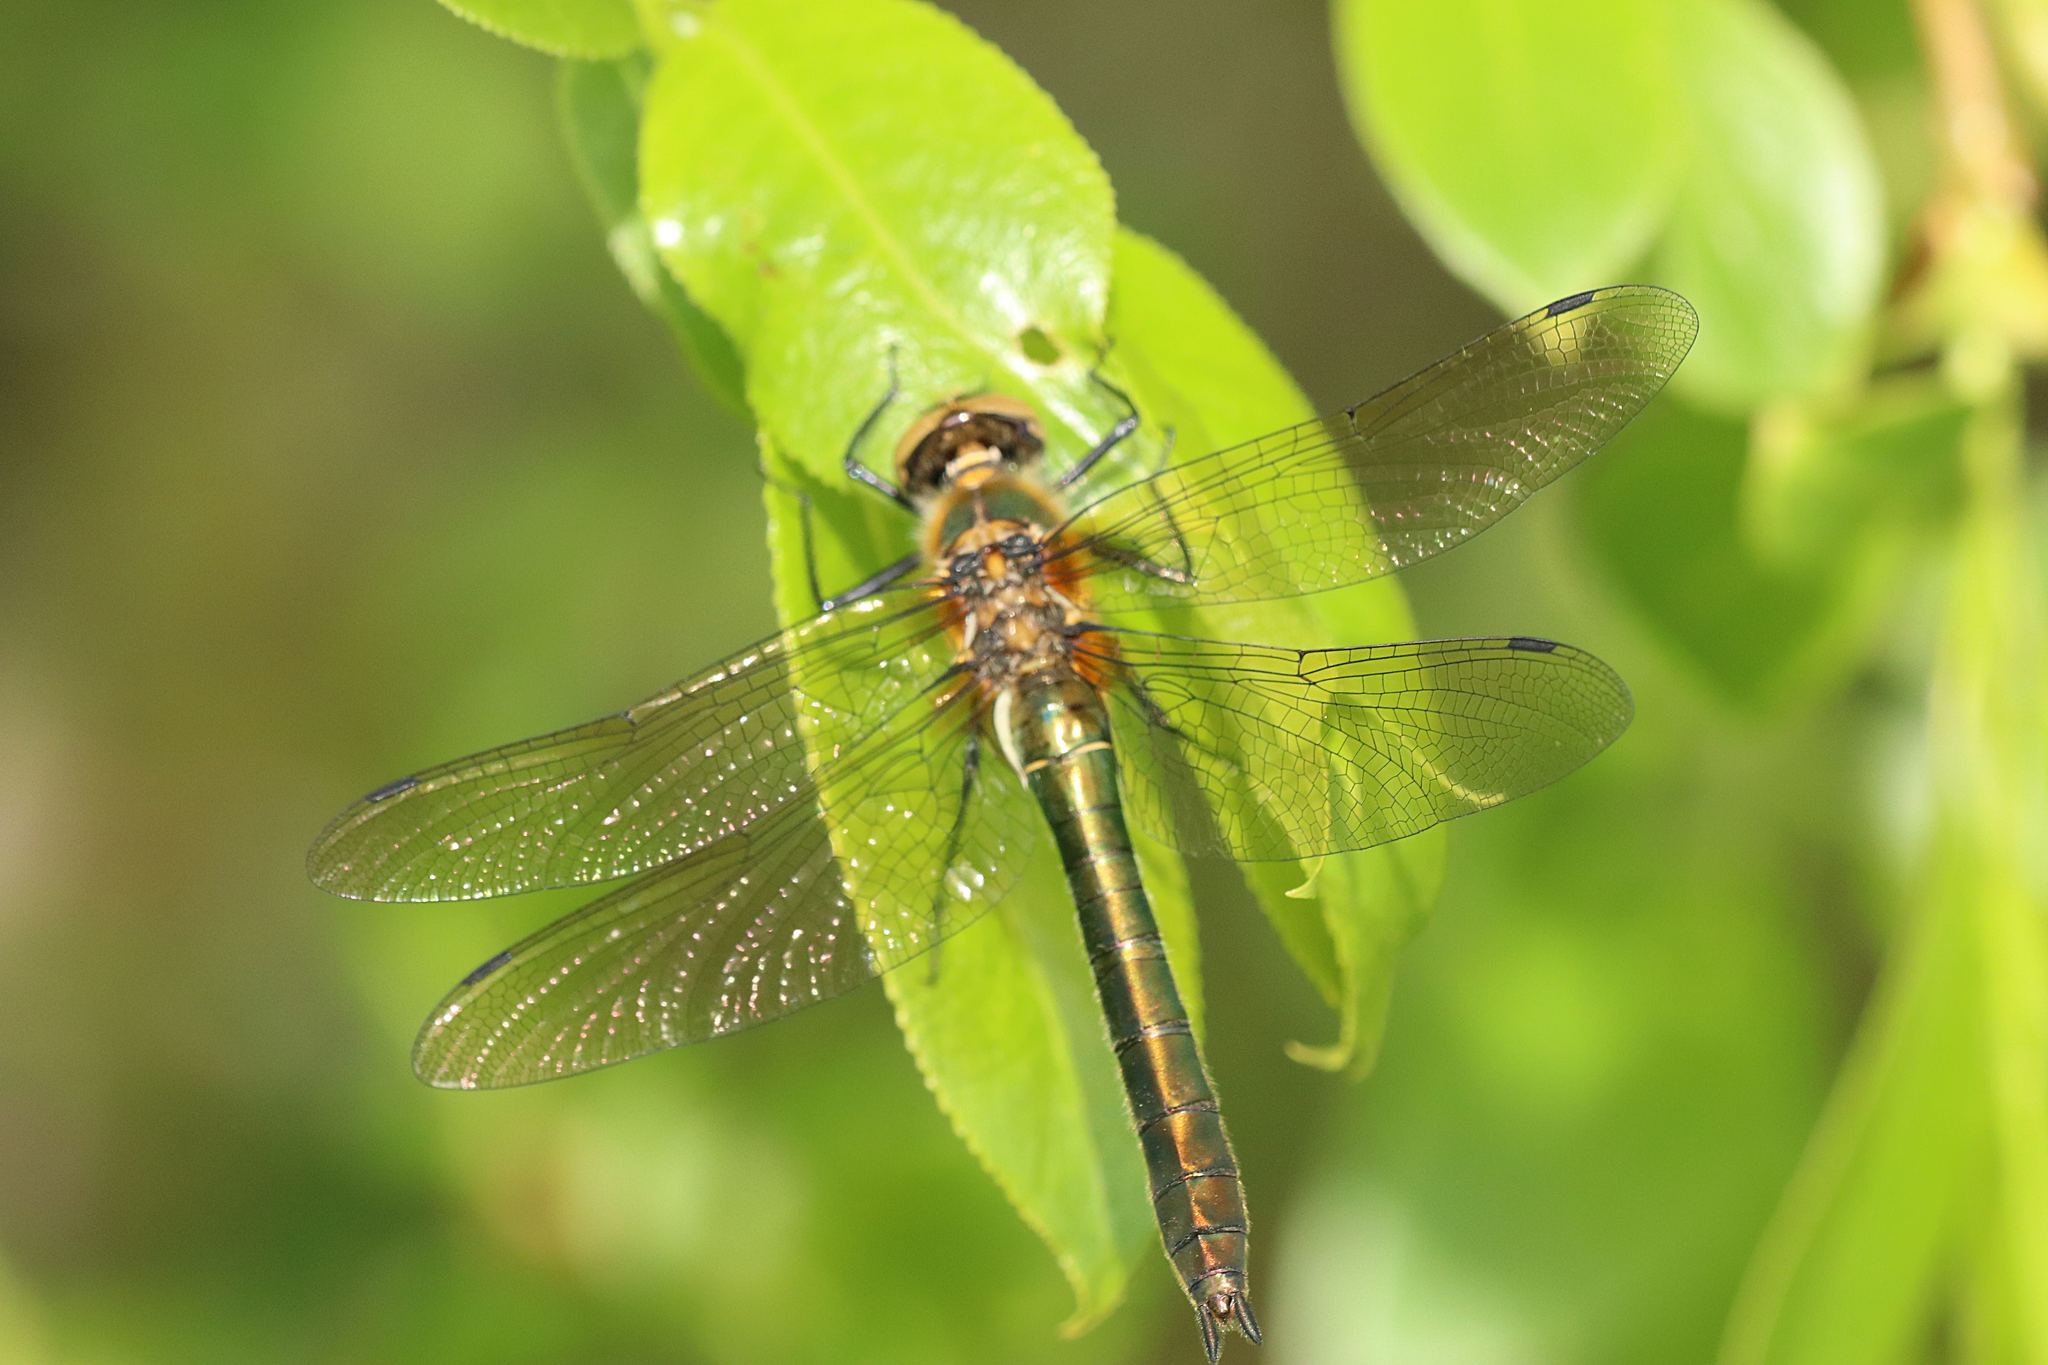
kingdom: Animalia
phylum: Arthropoda
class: Insecta
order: Odonata
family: Corduliidae
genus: Cordulia
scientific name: Cordulia aenea
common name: Downy emerald
